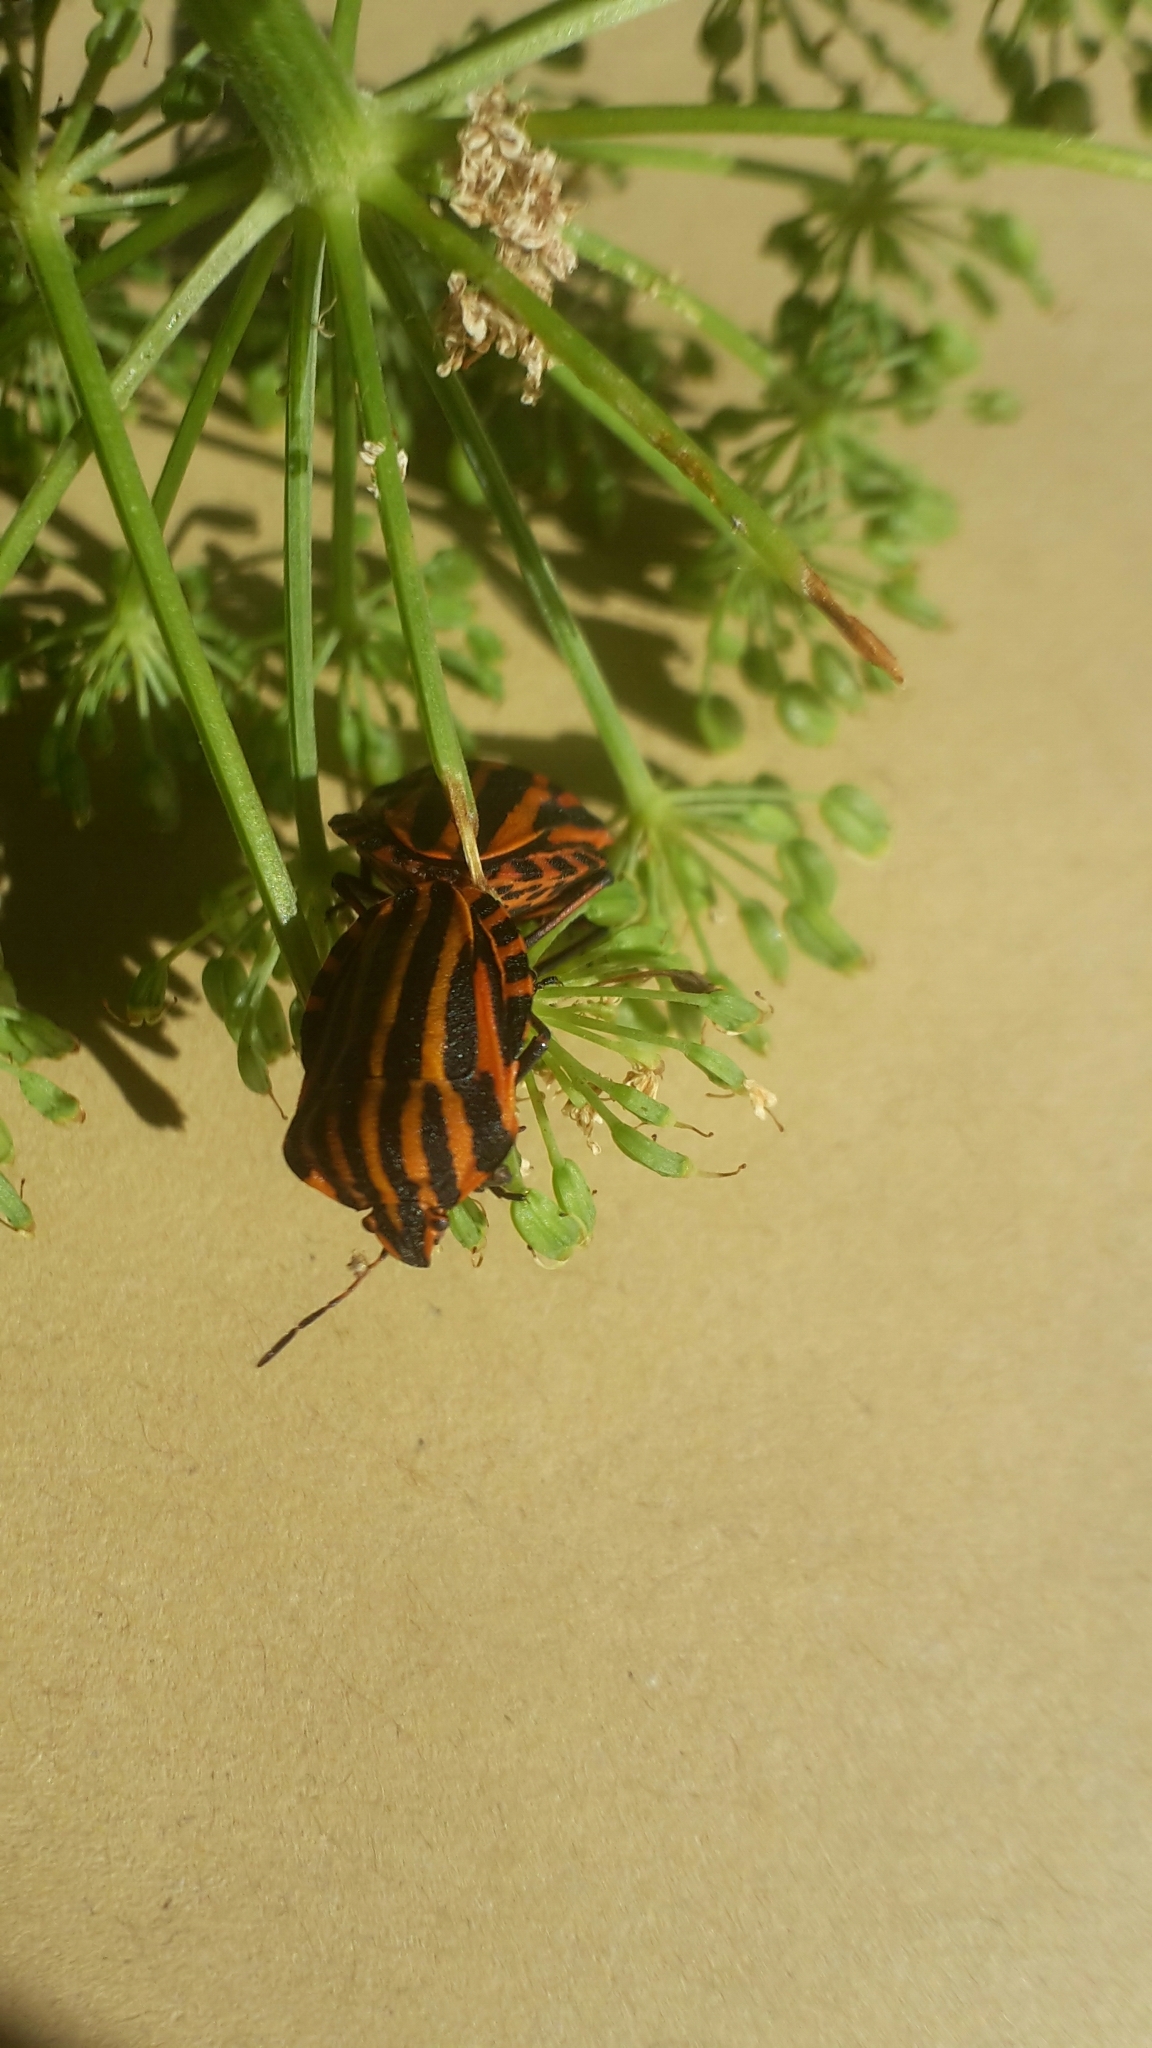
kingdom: Animalia
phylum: Arthropoda
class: Insecta
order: Hemiptera
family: Pentatomidae
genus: Graphosoma
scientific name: Graphosoma italicum
